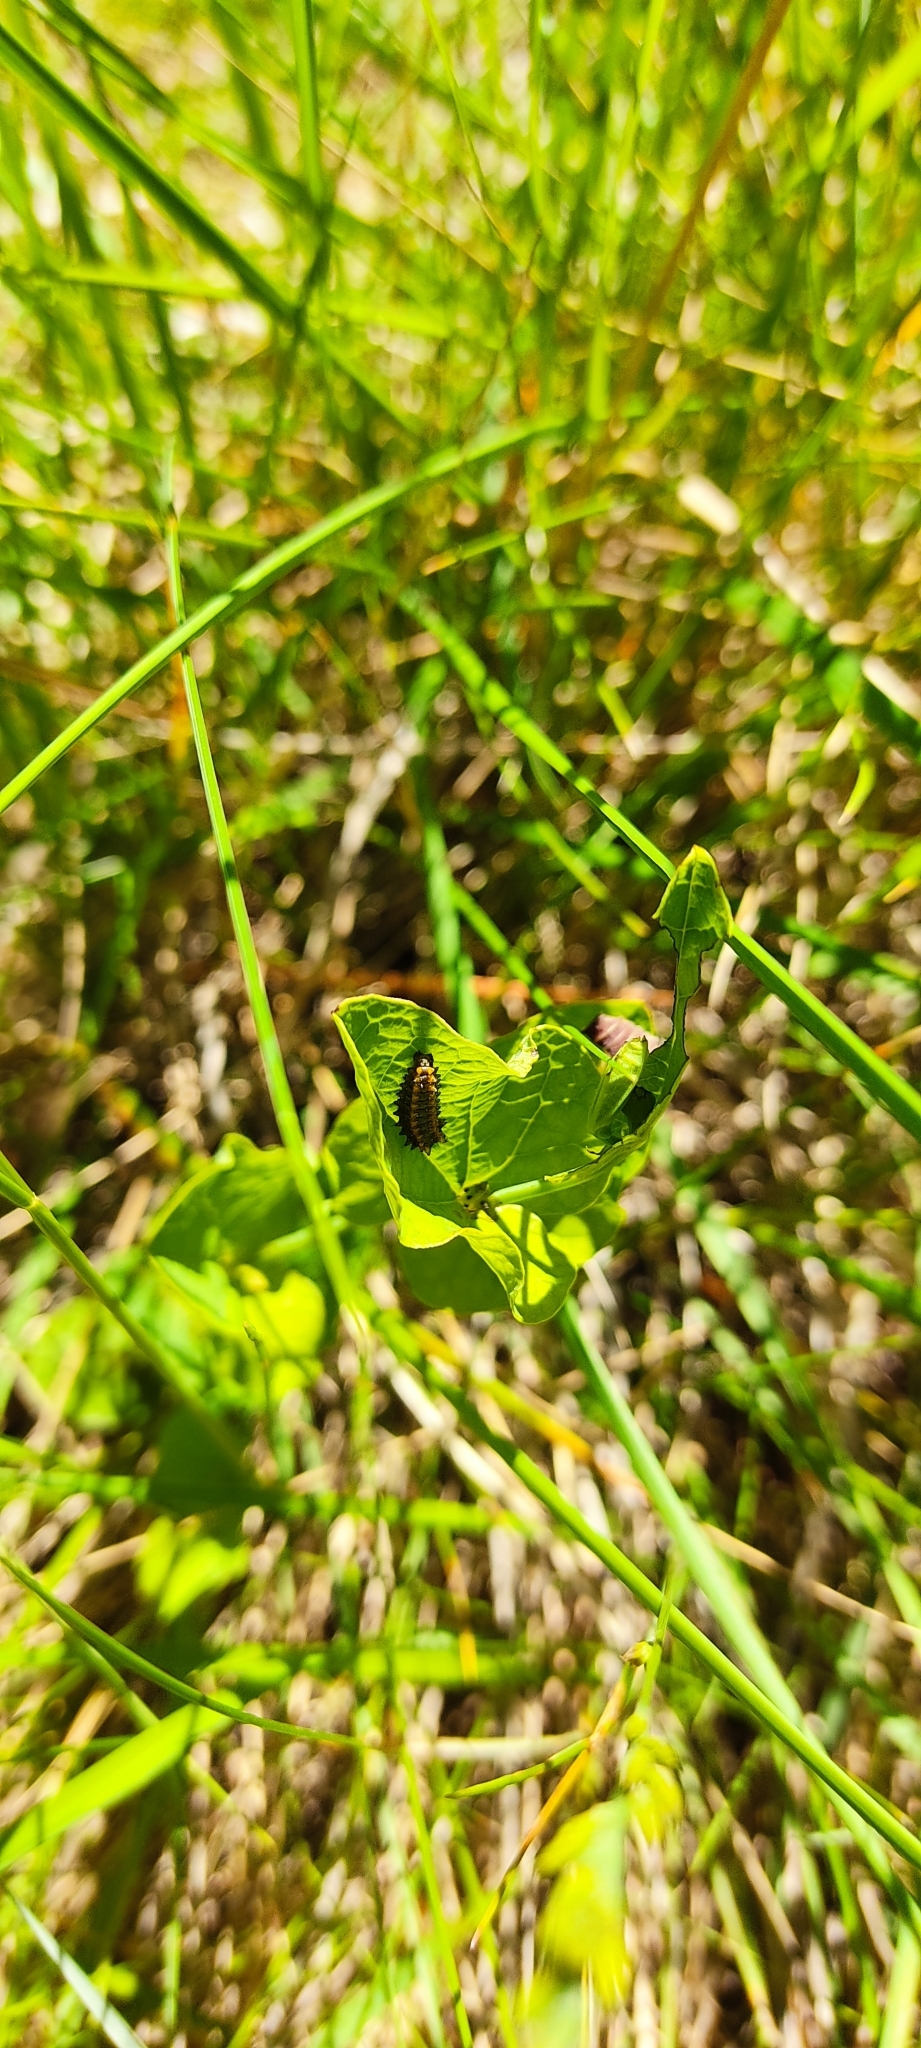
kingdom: Animalia
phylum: Arthropoda
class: Insecta
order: Lepidoptera
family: Papilionidae
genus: Zerynthia
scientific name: Zerynthia polyxena
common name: Southern festoon
